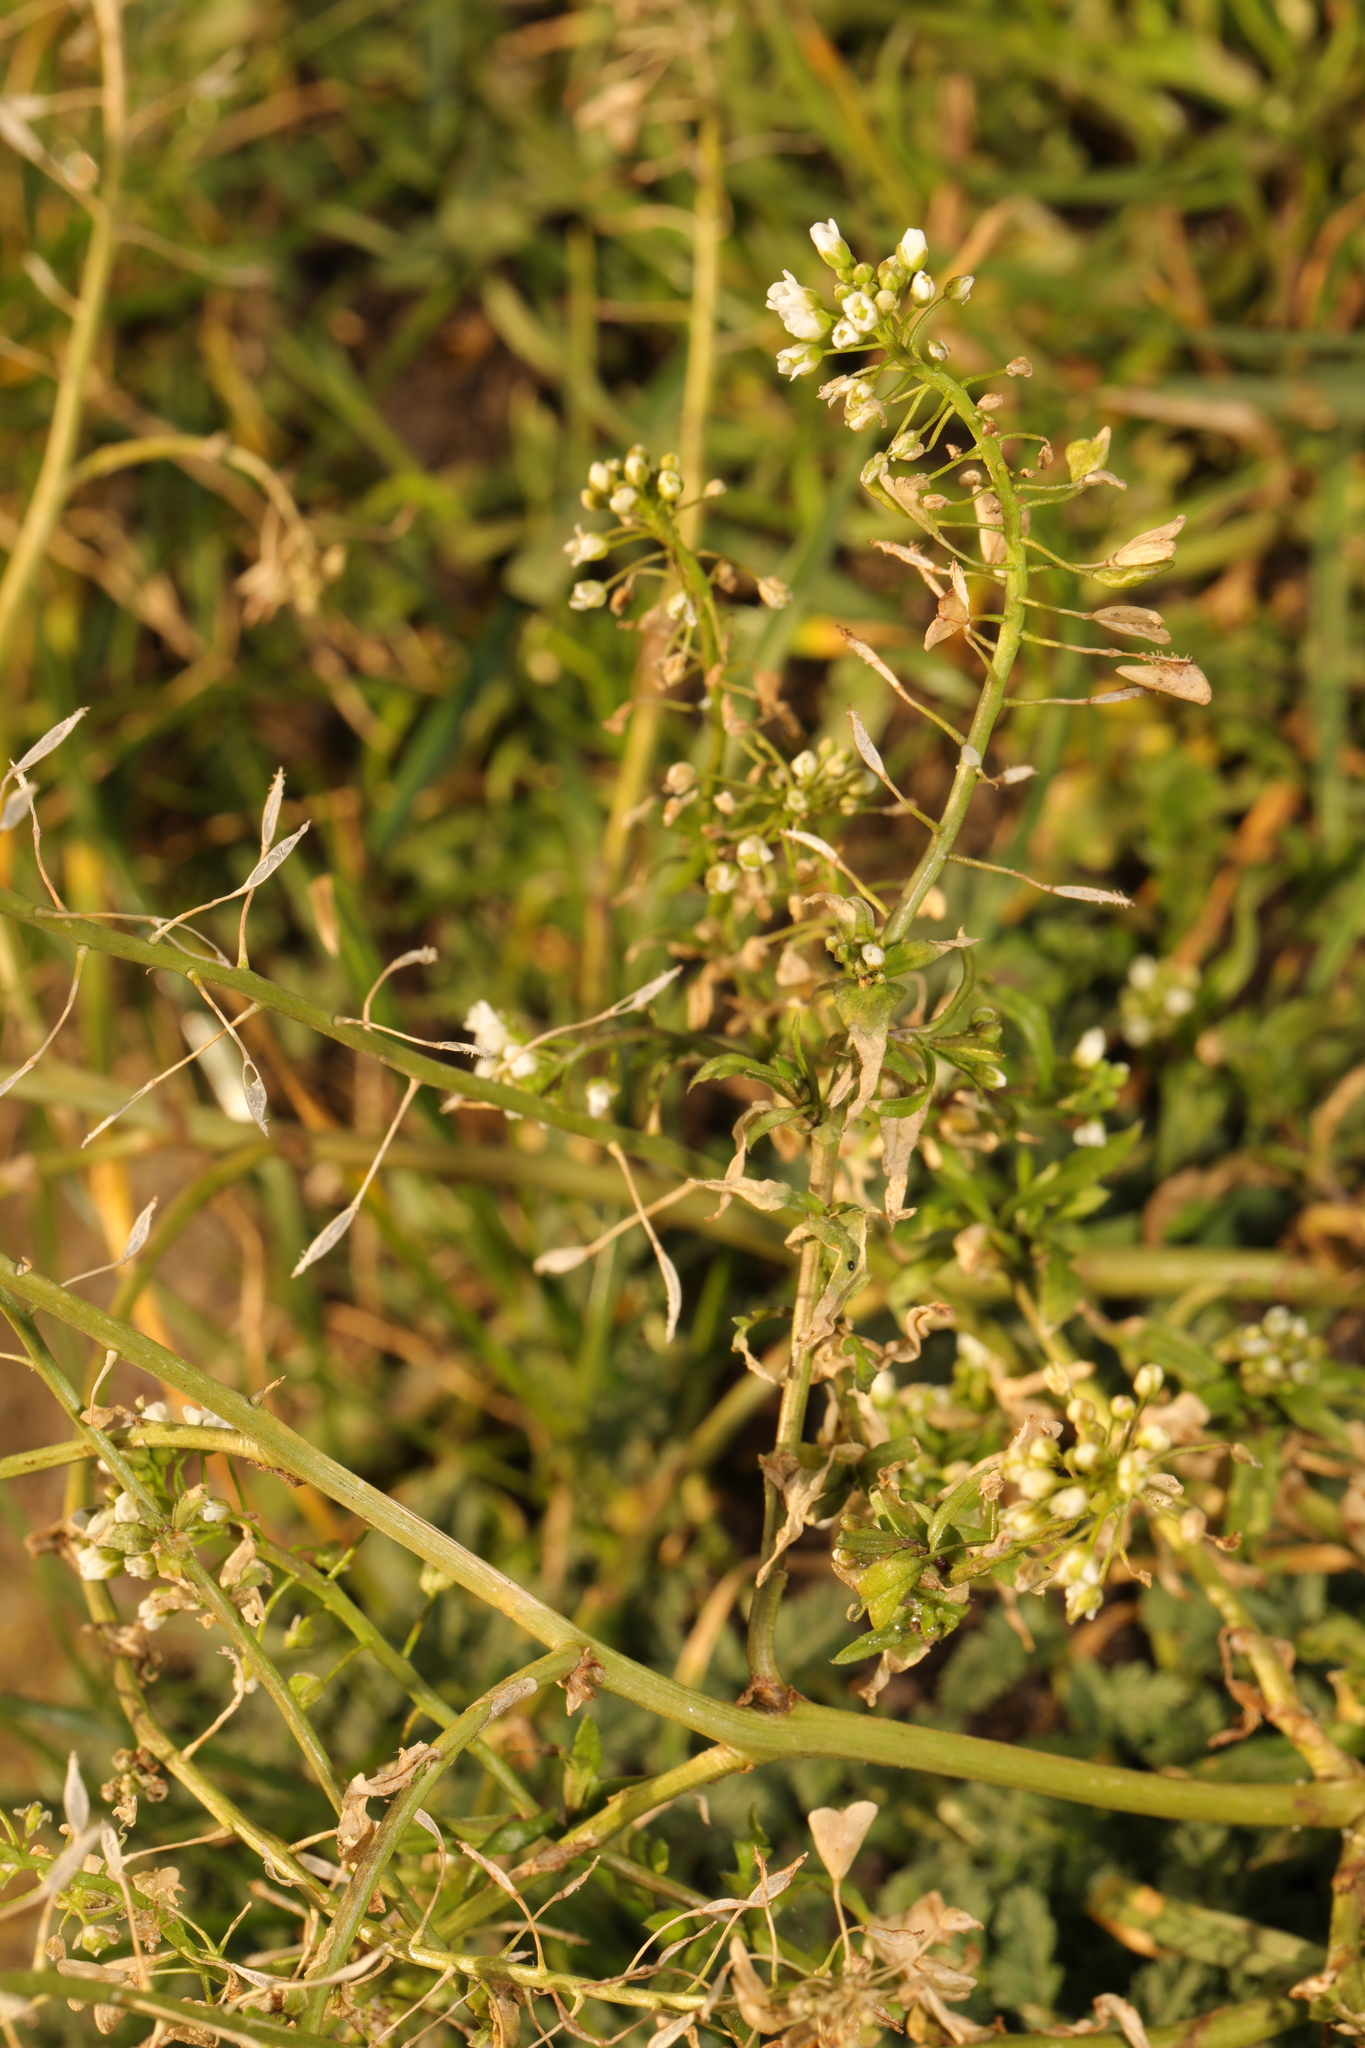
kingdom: Plantae
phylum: Tracheophyta
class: Magnoliopsida
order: Brassicales
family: Brassicaceae
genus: Capsella
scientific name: Capsella bursa-pastoris
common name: Shepherd's purse
